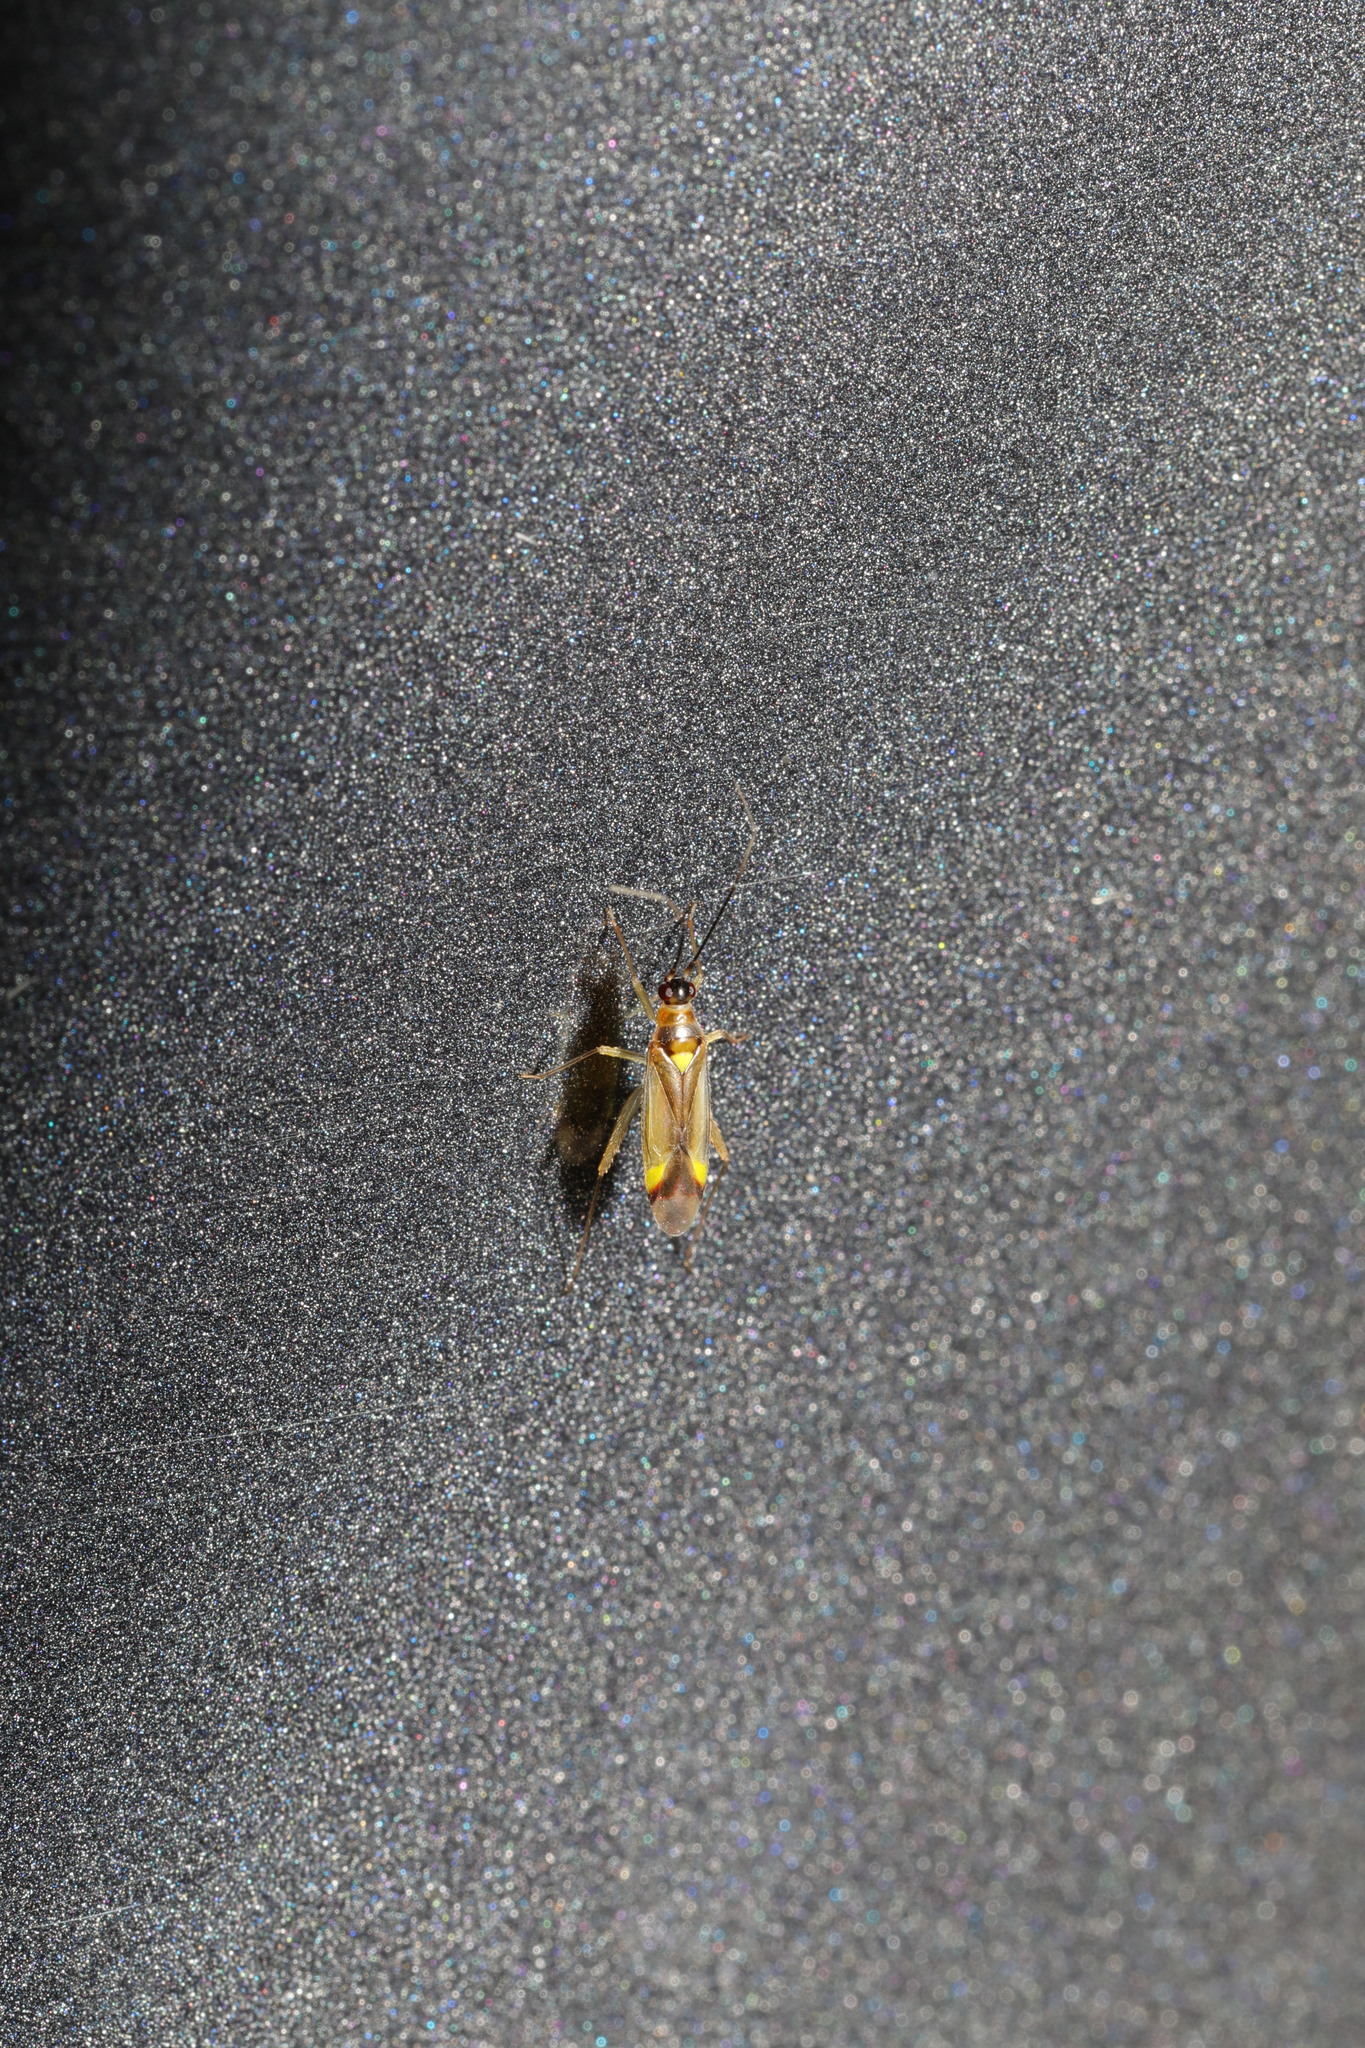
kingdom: Animalia
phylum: Arthropoda
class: Insecta
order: Hemiptera
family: Miridae
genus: Campyloneura
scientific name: Campyloneura virgula
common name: Predatory bug
